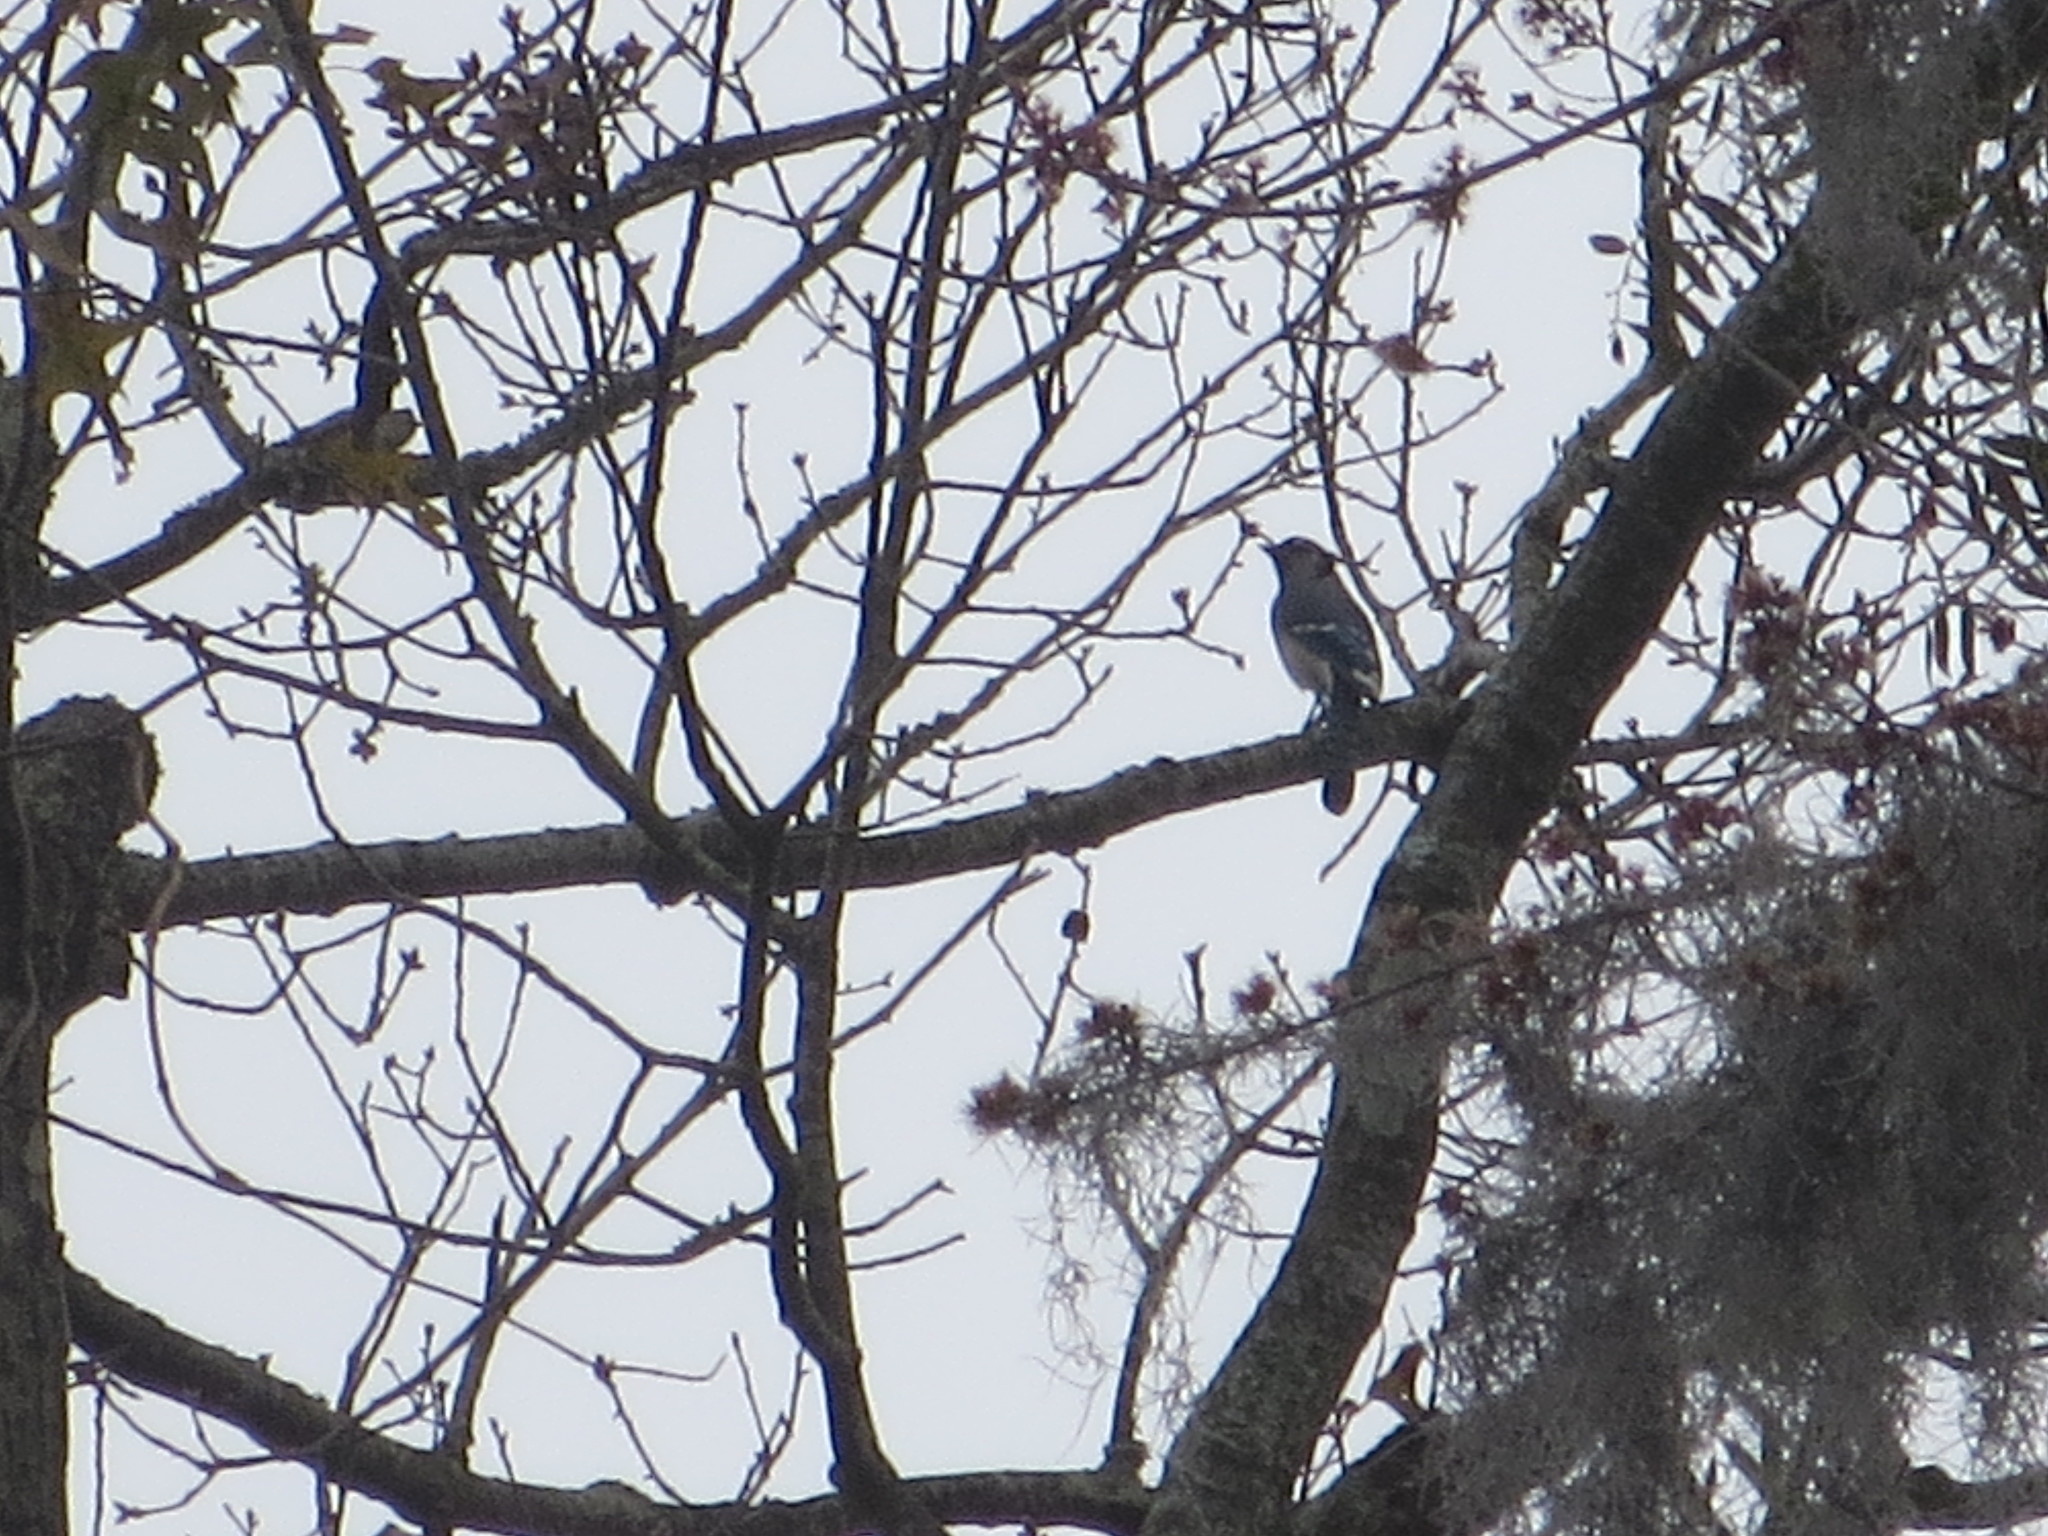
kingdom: Animalia
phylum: Chordata
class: Aves
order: Passeriformes
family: Corvidae
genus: Cyanocitta
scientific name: Cyanocitta cristata
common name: Blue jay
